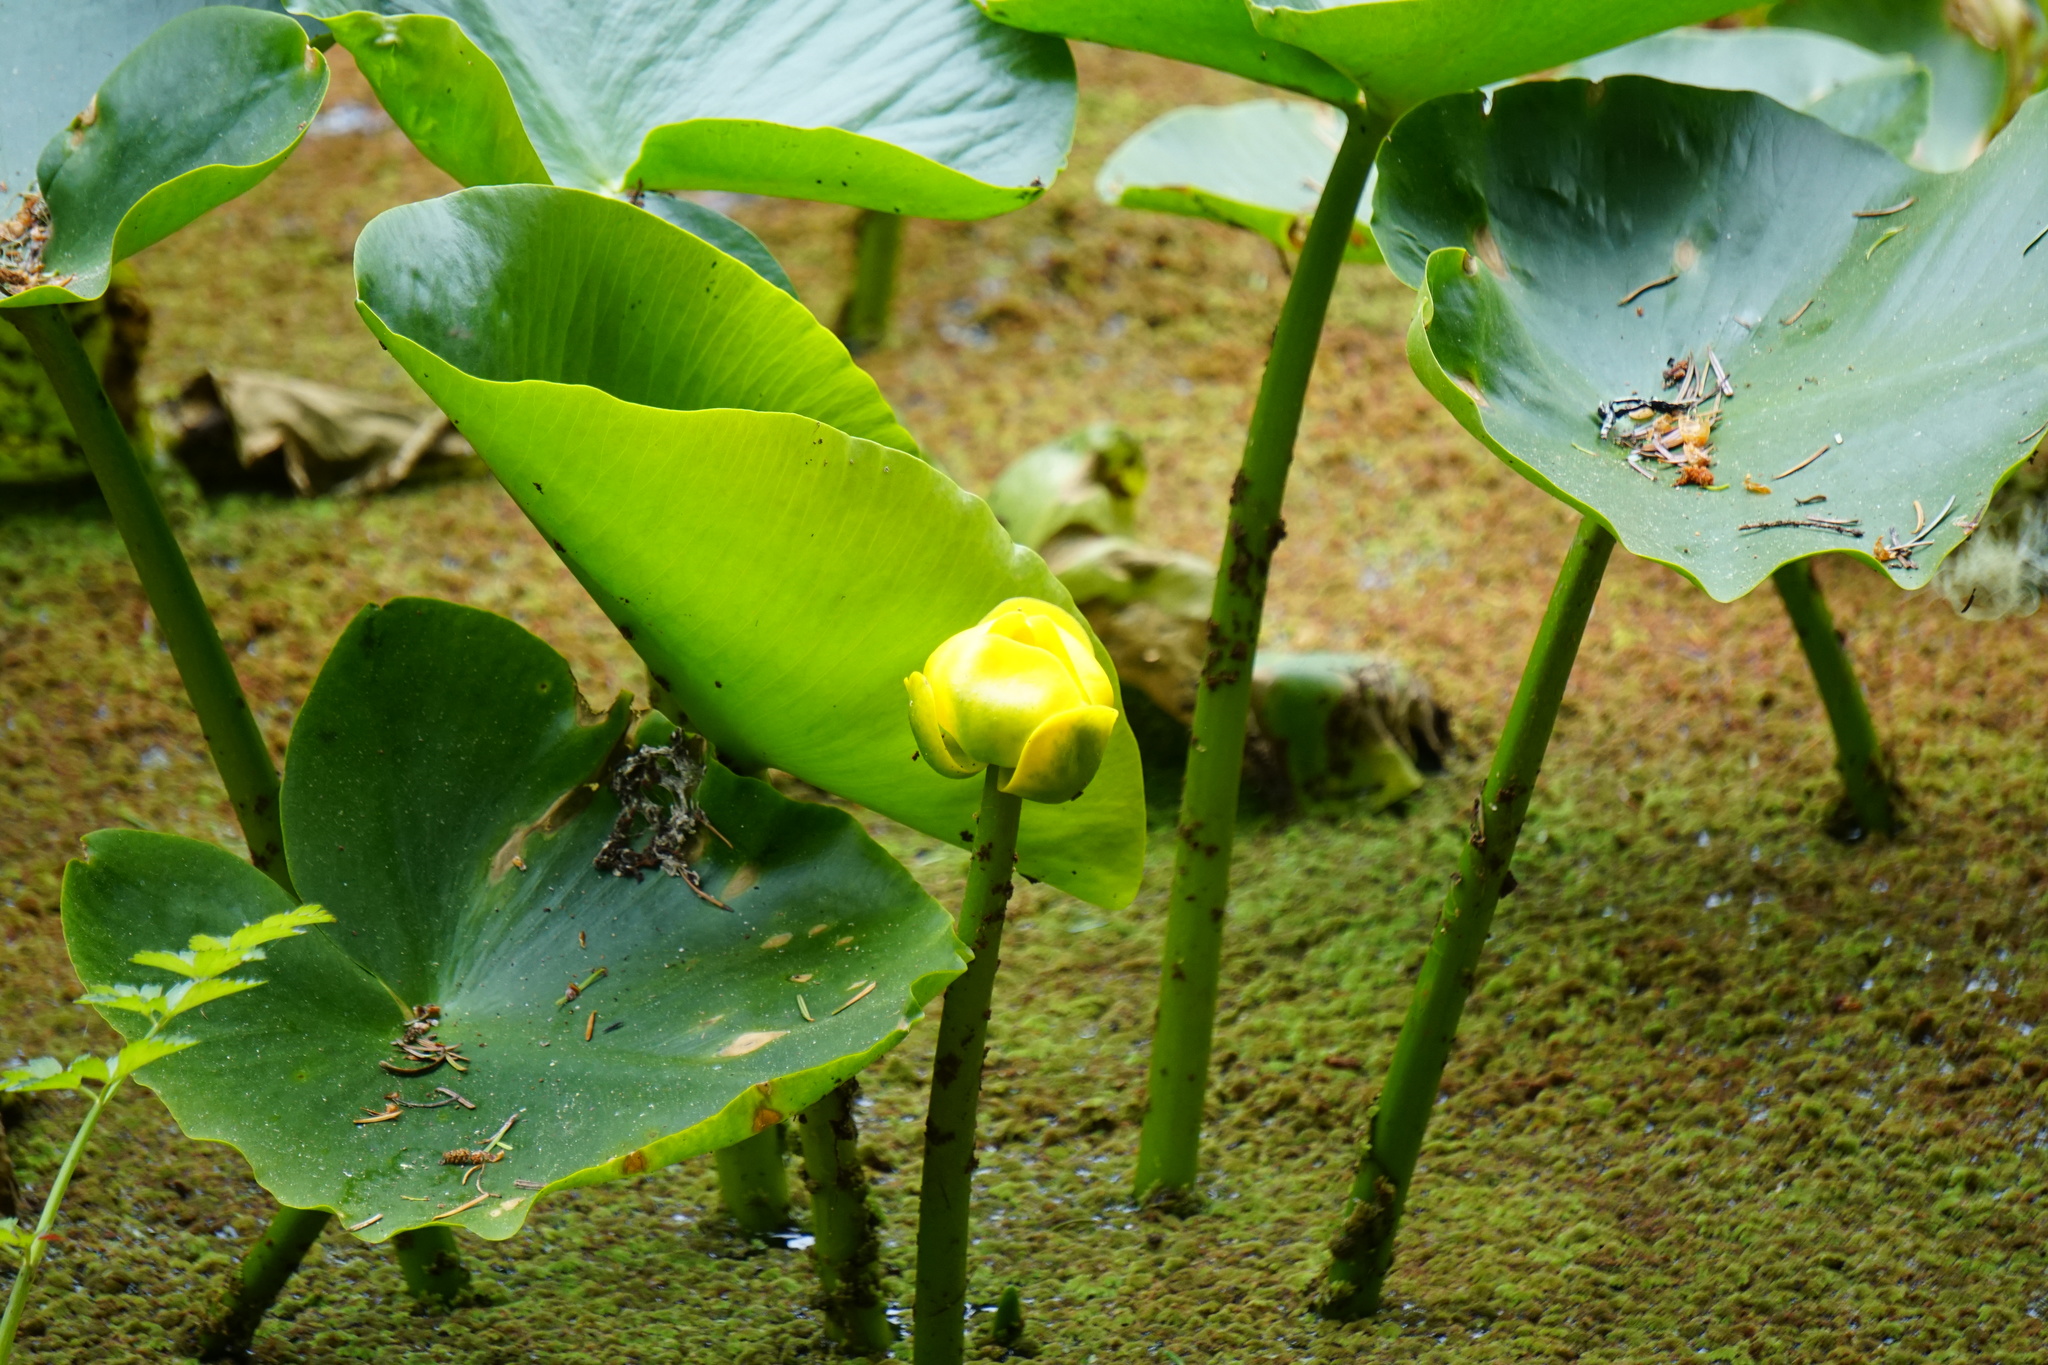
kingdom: Plantae
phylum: Tracheophyta
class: Magnoliopsida
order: Nymphaeales
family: Nymphaeaceae
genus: Nuphar
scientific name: Nuphar polysepala
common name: Rocky mountain cow-lily
